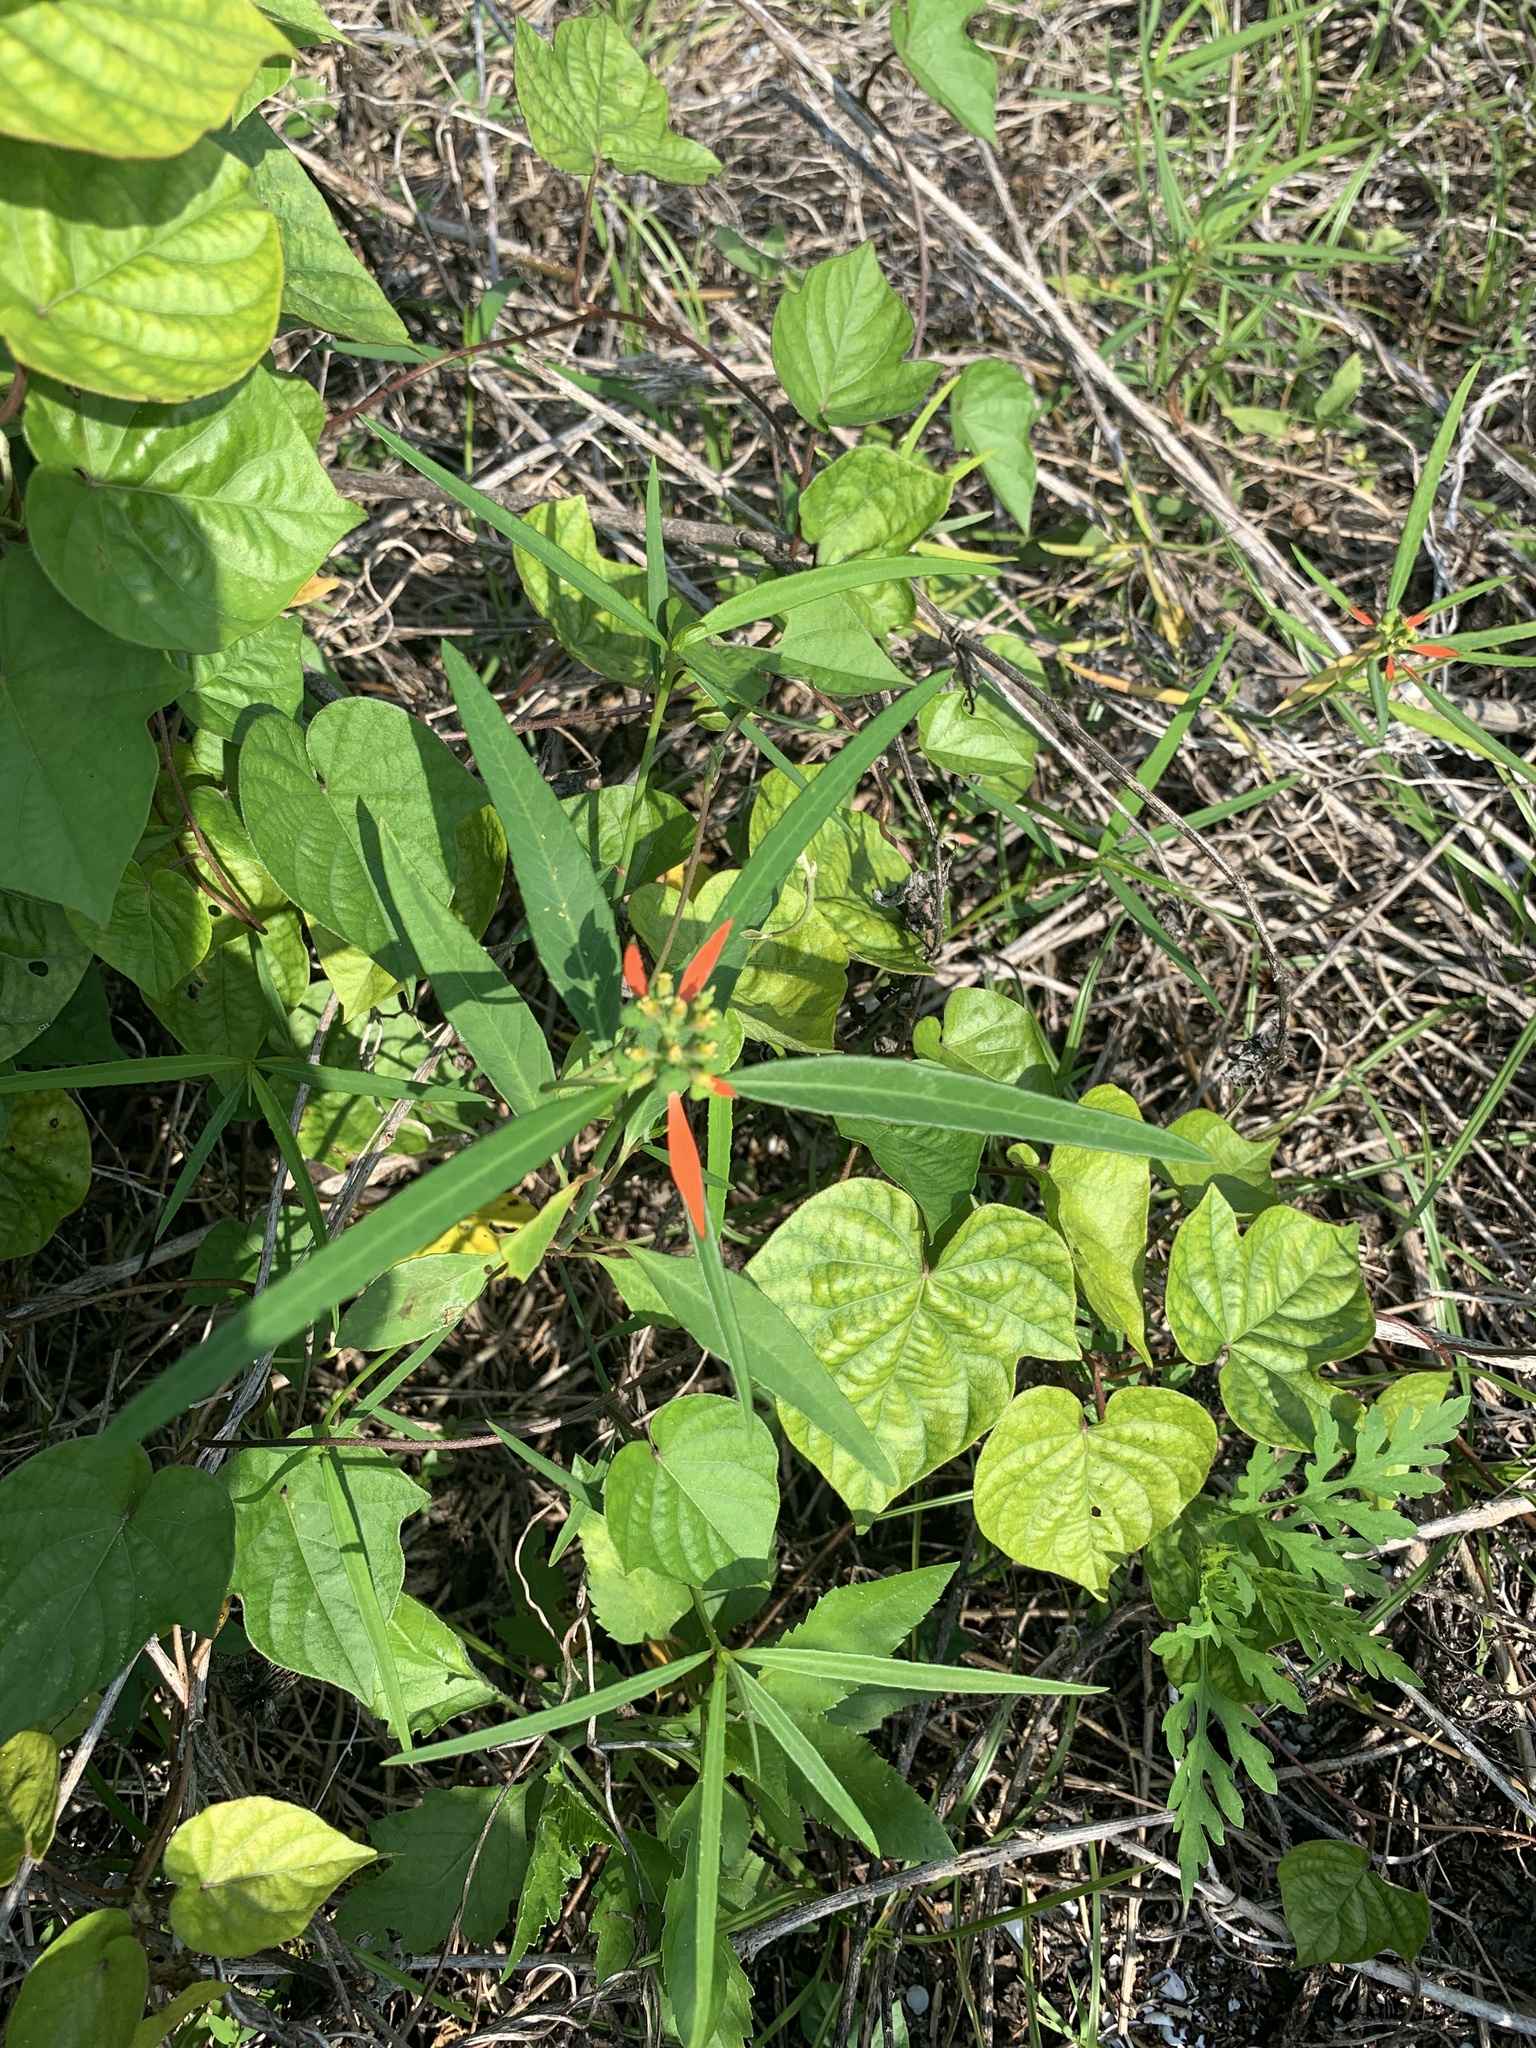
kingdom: Plantae
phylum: Tracheophyta
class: Magnoliopsida
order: Malpighiales
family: Euphorbiaceae
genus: Euphorbia
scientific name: Euphorbia heterophylla
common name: Mexican fireplant
